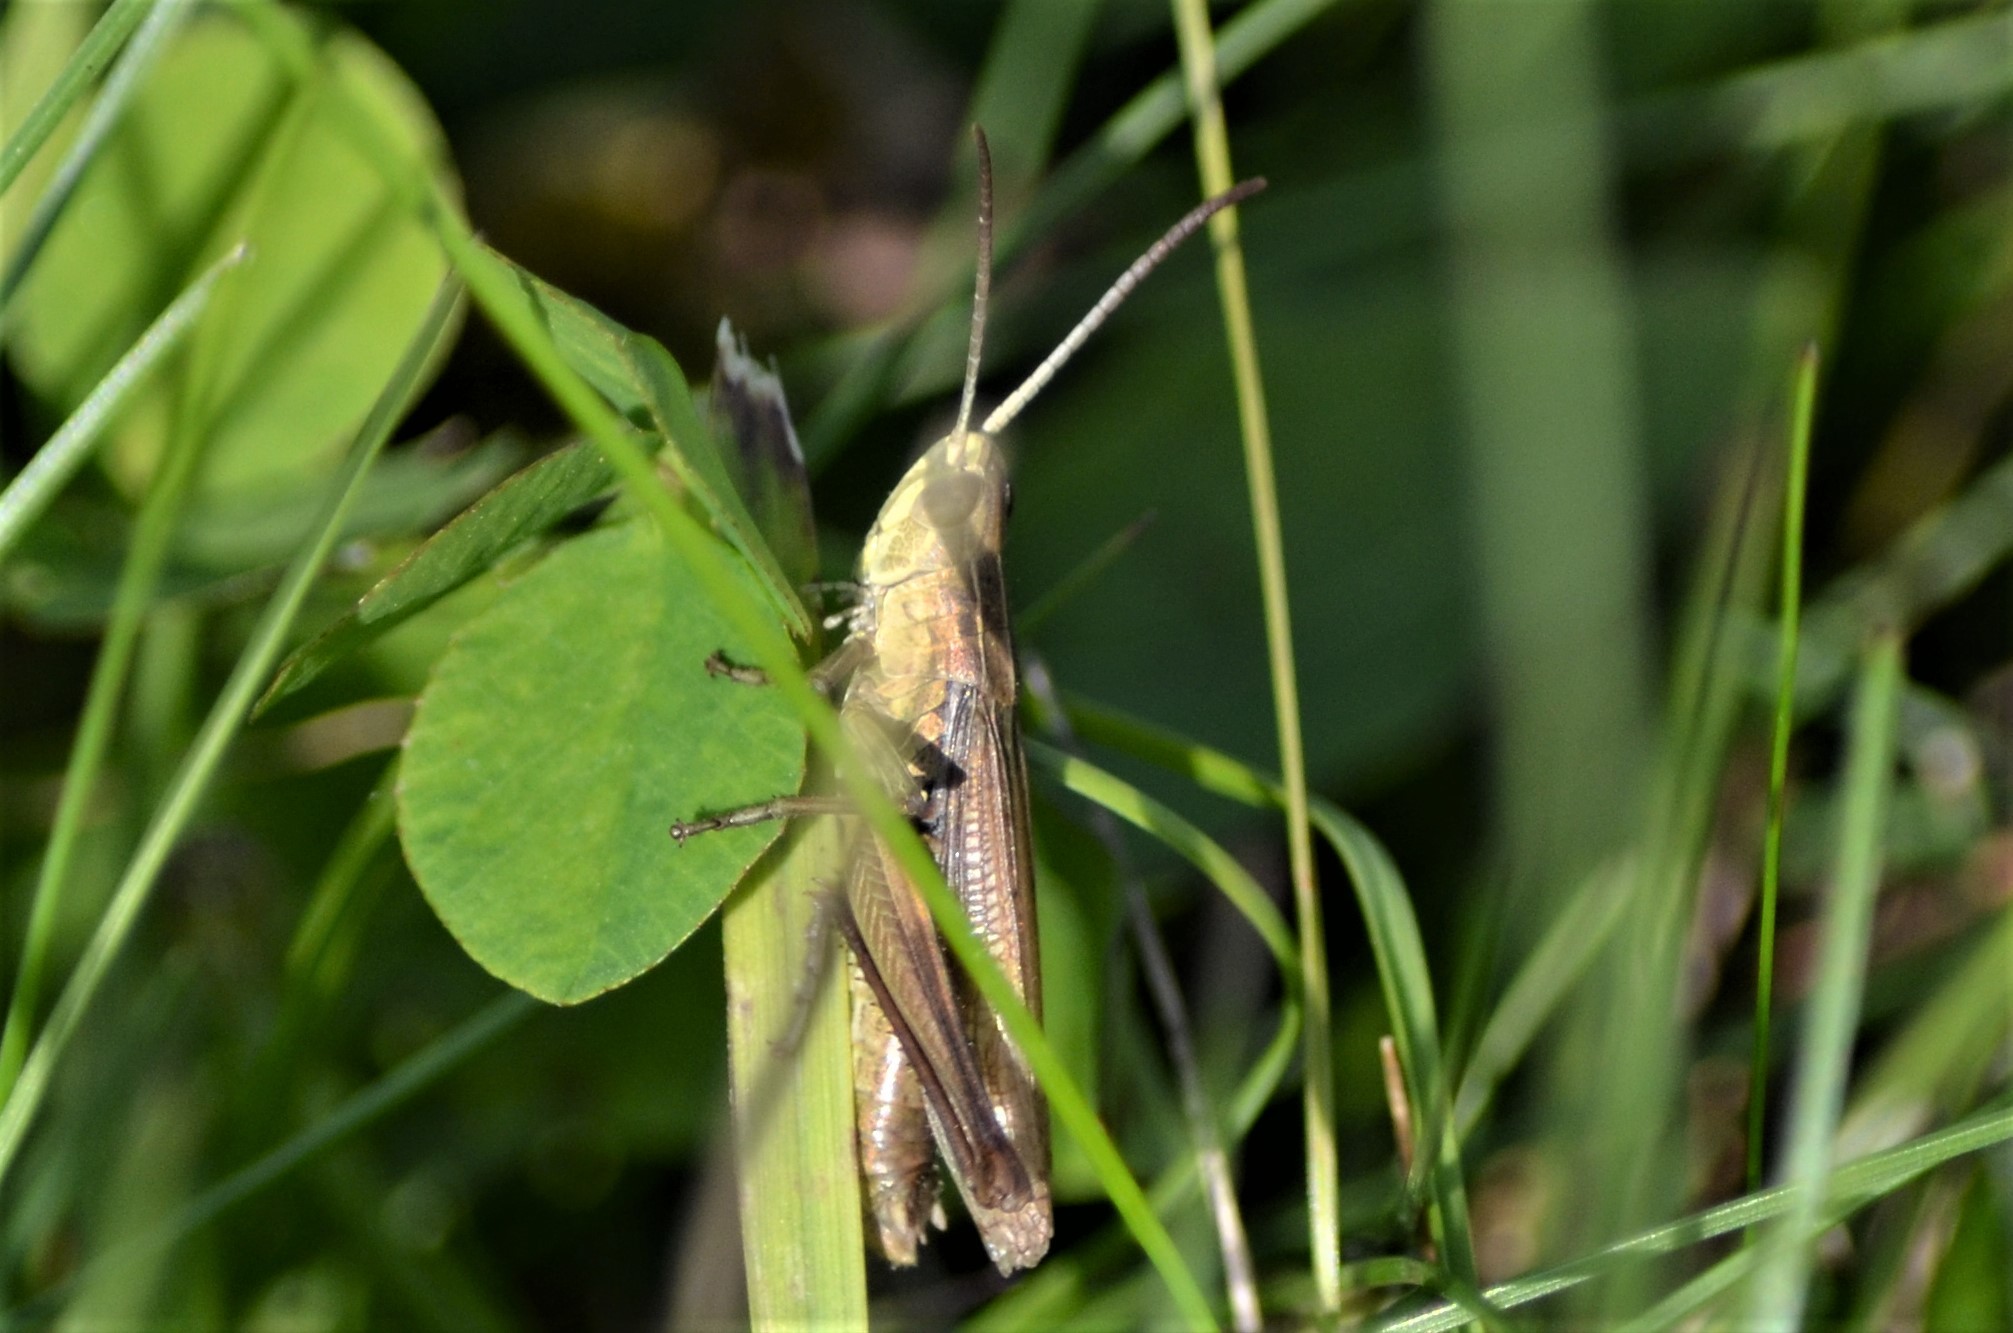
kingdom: Animalia
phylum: Arthropoda
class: Insecta
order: Orthoptera
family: Acrididae
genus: Chorthippus
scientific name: Chorthippus albomarginatus
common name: Lesser marsh grasshopper
